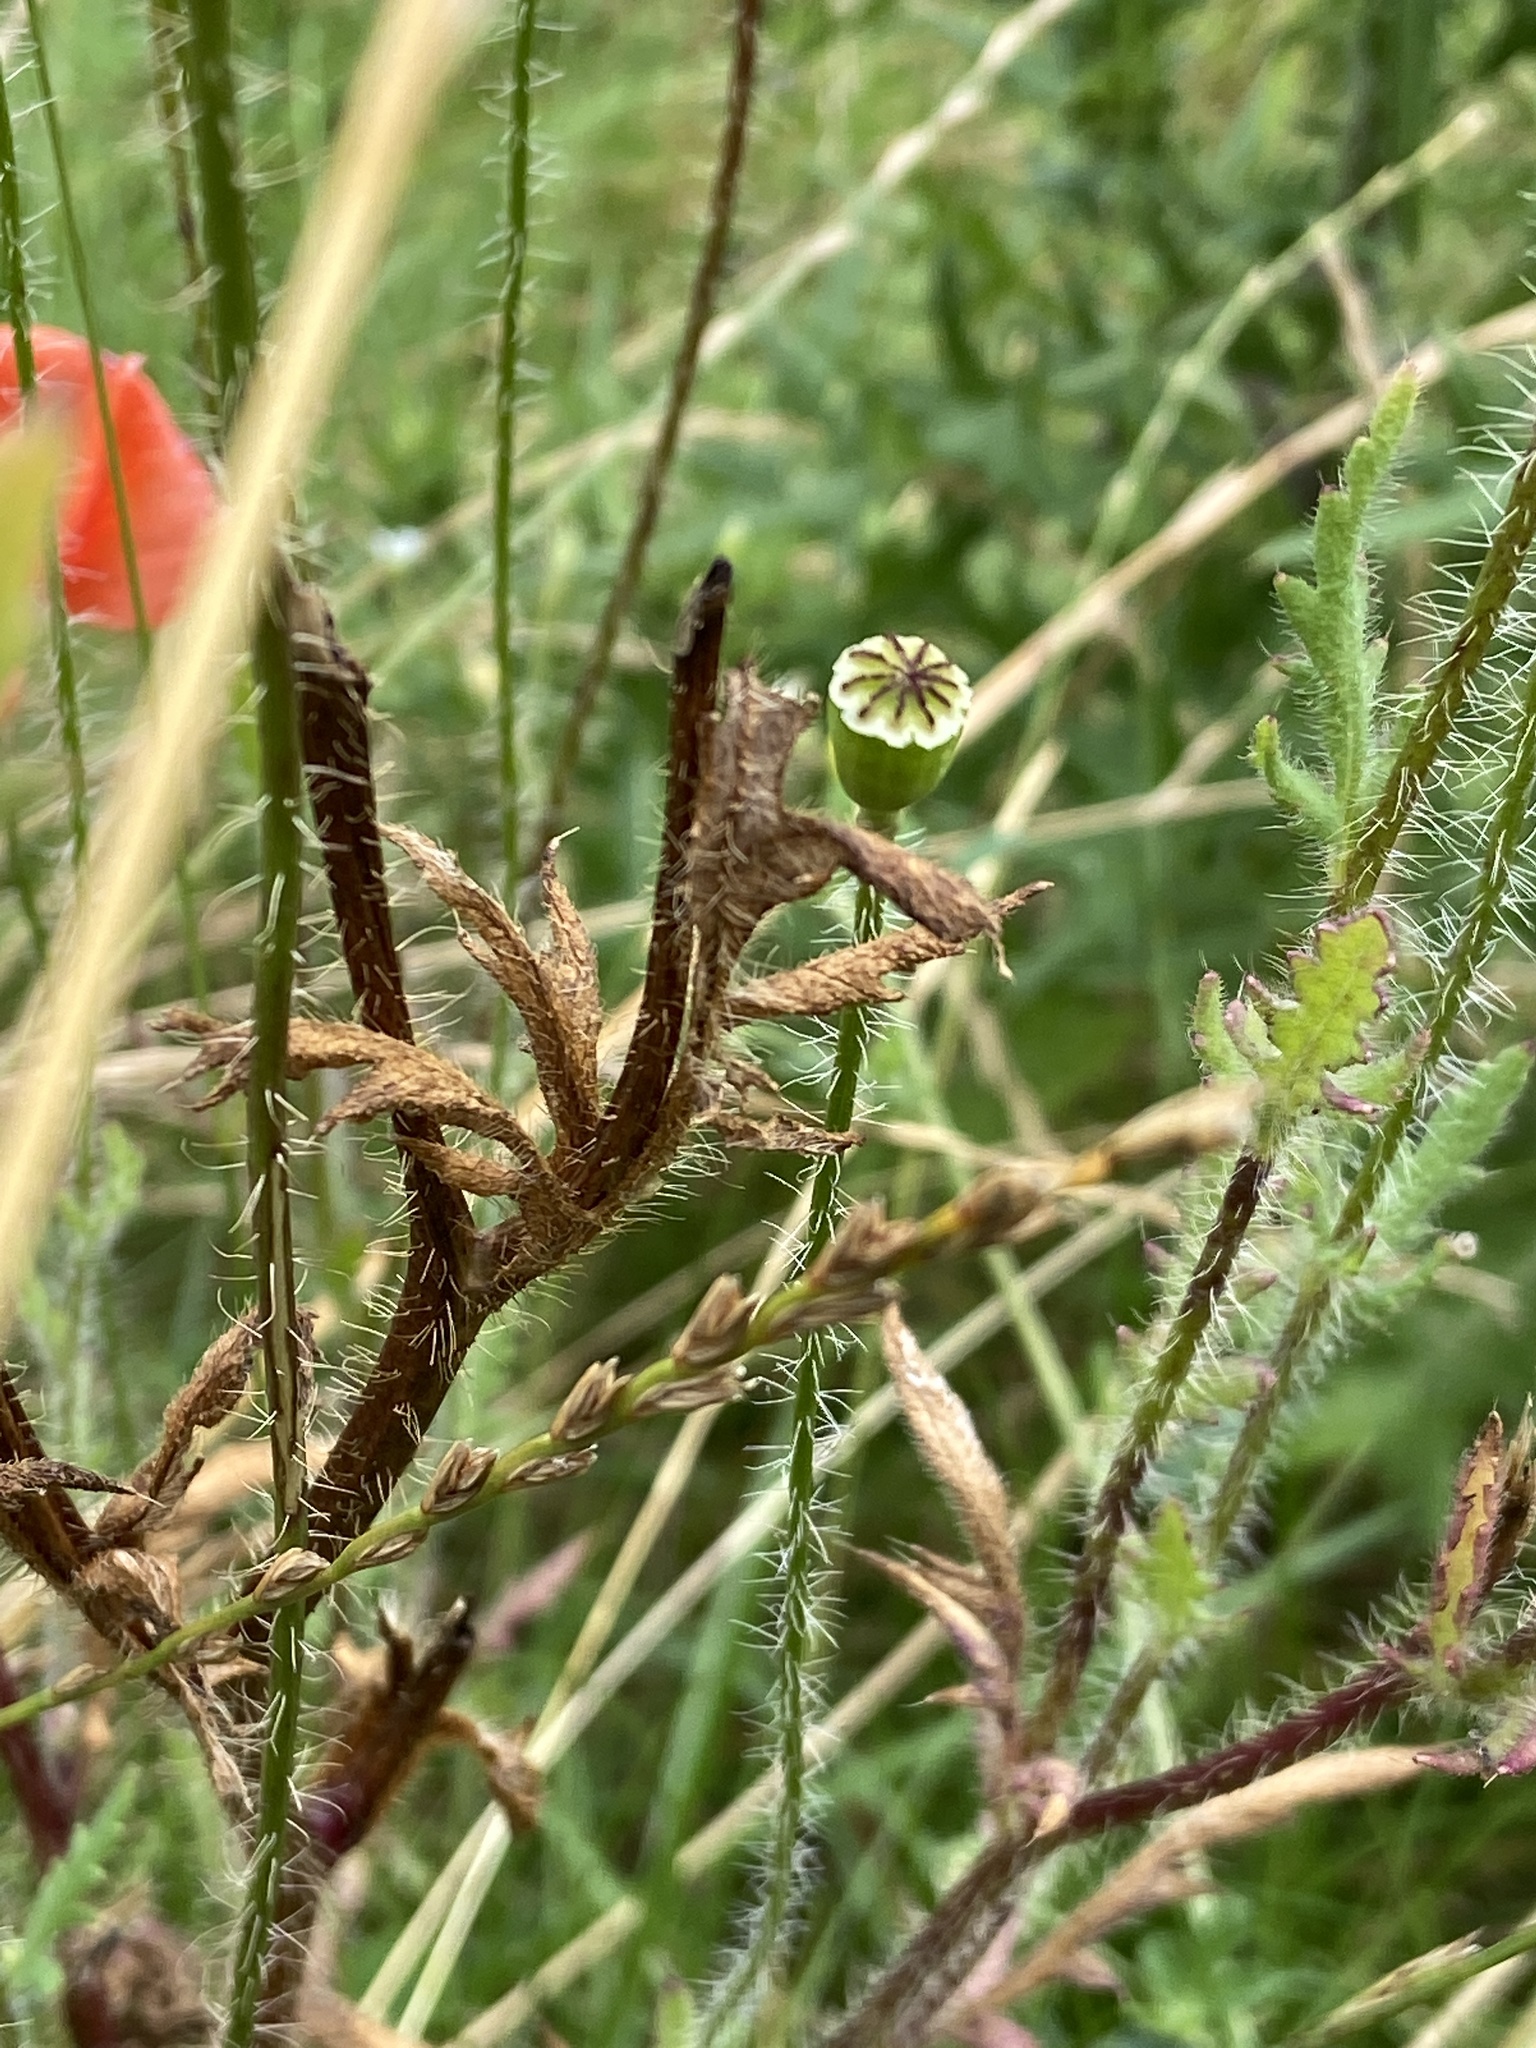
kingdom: Plantae
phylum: Tracheophyta
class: Magnoliopsida
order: Ranunculales
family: Papaveraceae
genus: Papaver
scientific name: Papaver rhoeas
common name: Corn poppy
